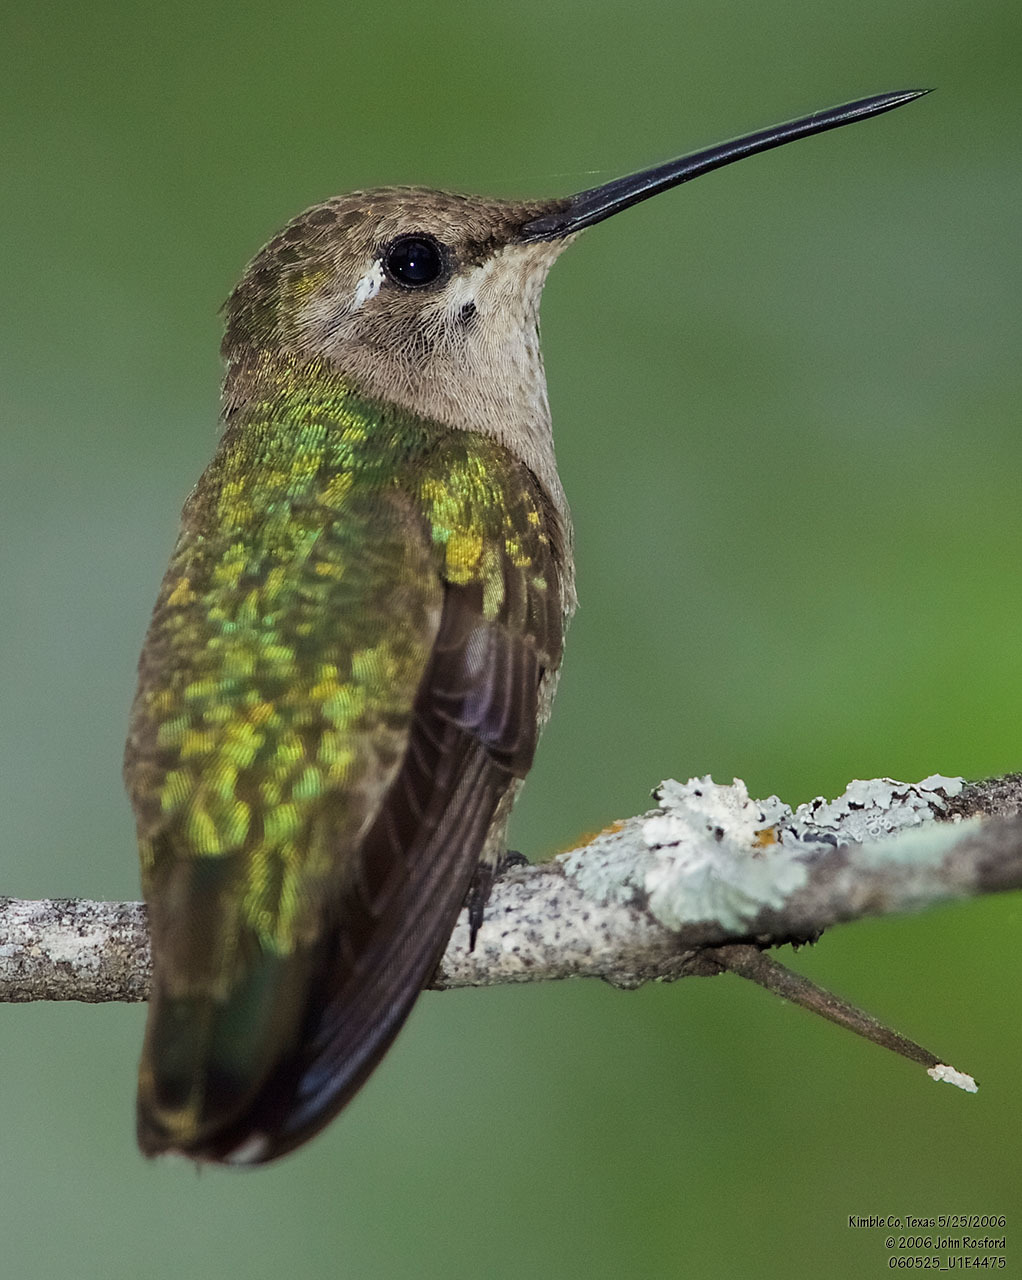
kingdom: Animalia
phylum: Chordata
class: Aves
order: Apodiformes
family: Trochilidae
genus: Archilochus
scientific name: Archilochus alexandri
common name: Black-chinned hummingbird
